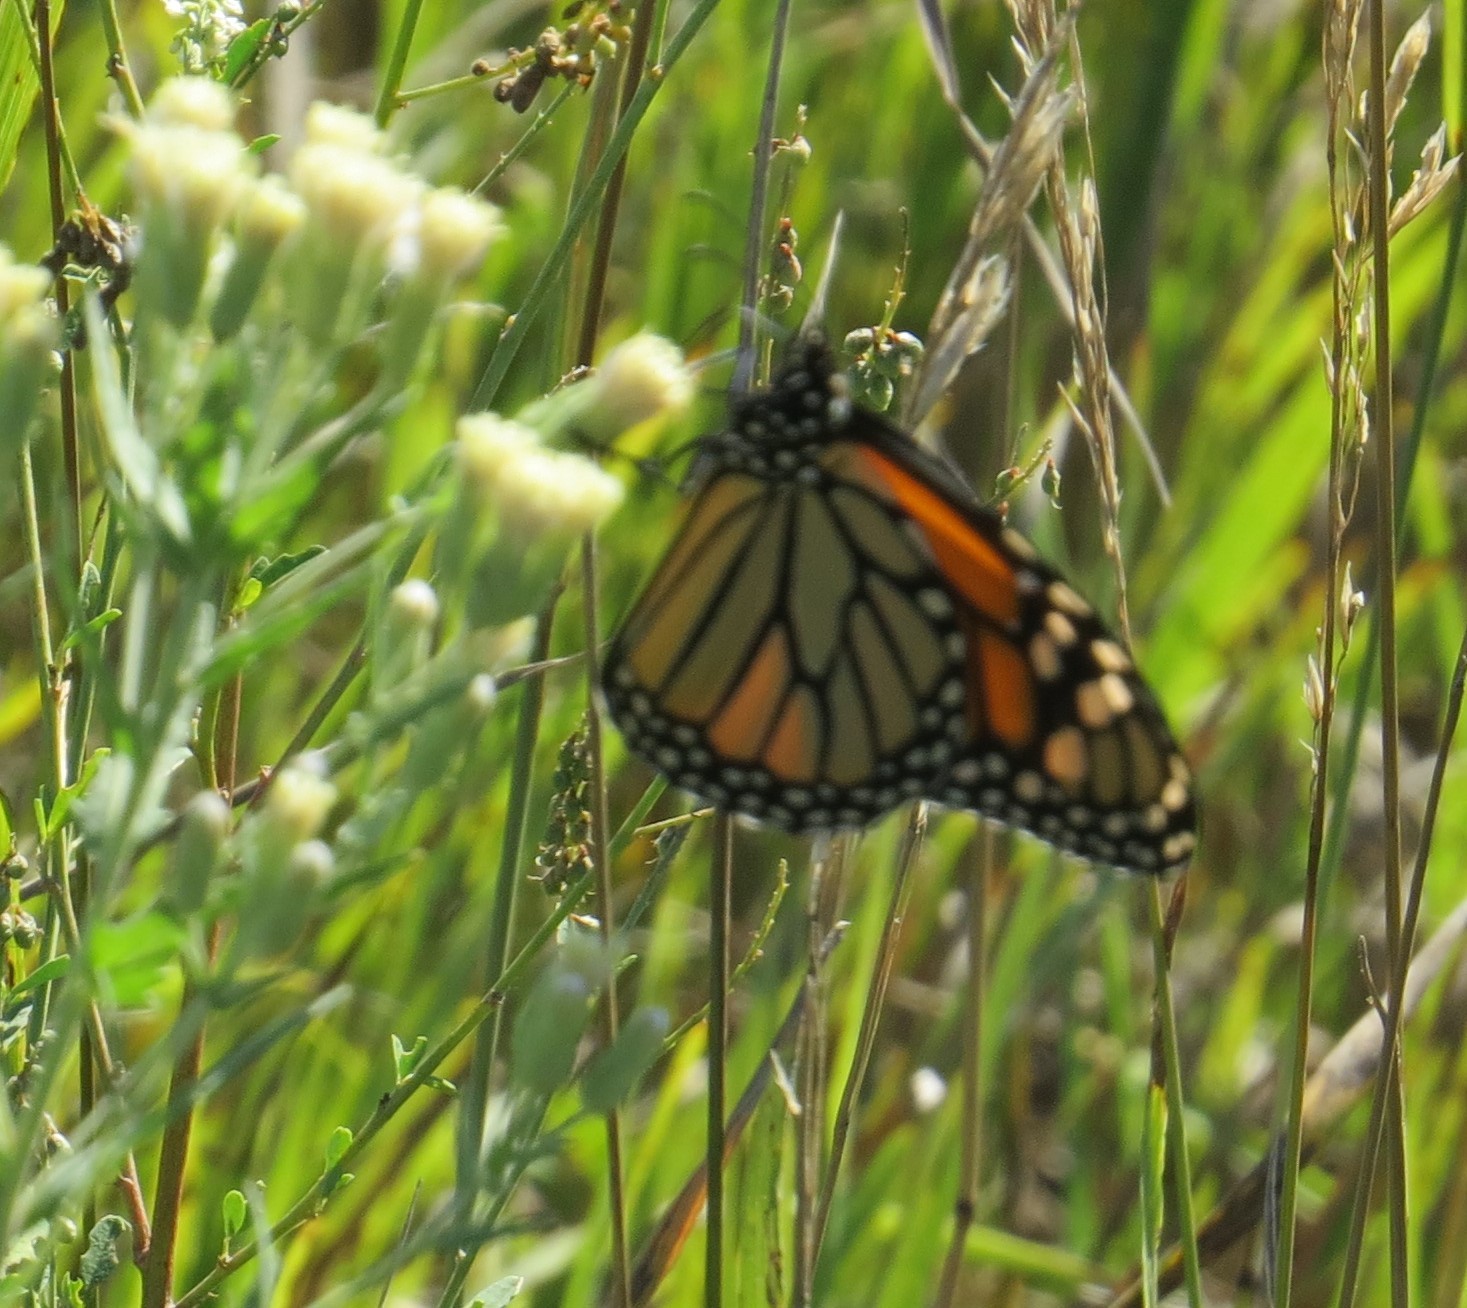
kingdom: Animalia
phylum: Arthropoda
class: Insecta
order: Lepidoptera
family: Nymphalidae
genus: Danaus
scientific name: Danaus plexippus
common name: Monarch
